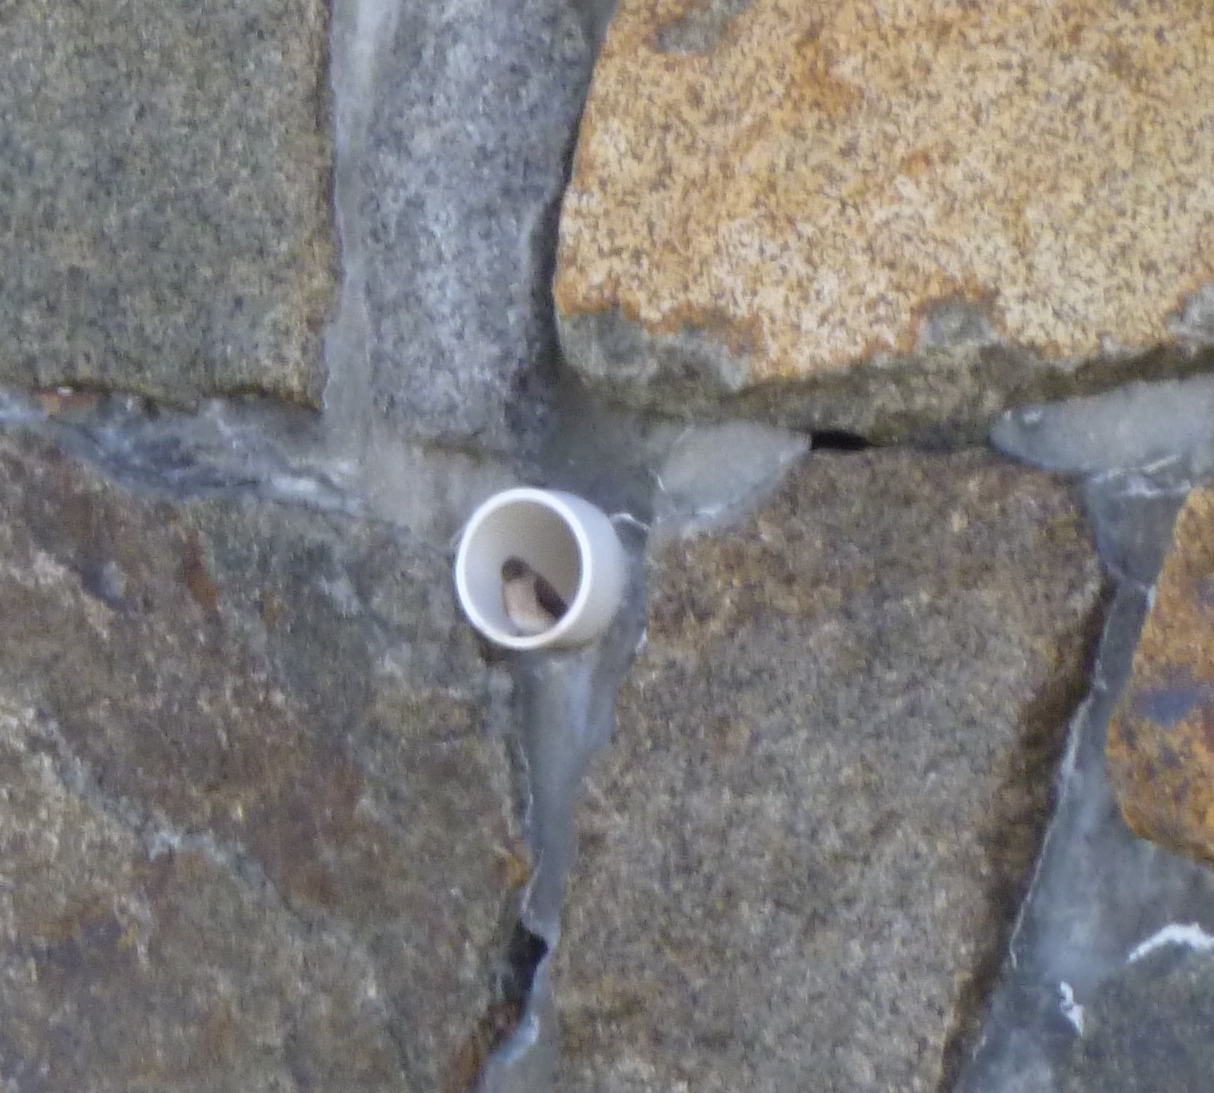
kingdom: Animalia
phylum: Chordata
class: Aves
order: Passeriformes
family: Hirundinidae
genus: Stelgidopteryx
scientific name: Stelgidopteryx serripennis
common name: Northern rough-winged swallow
